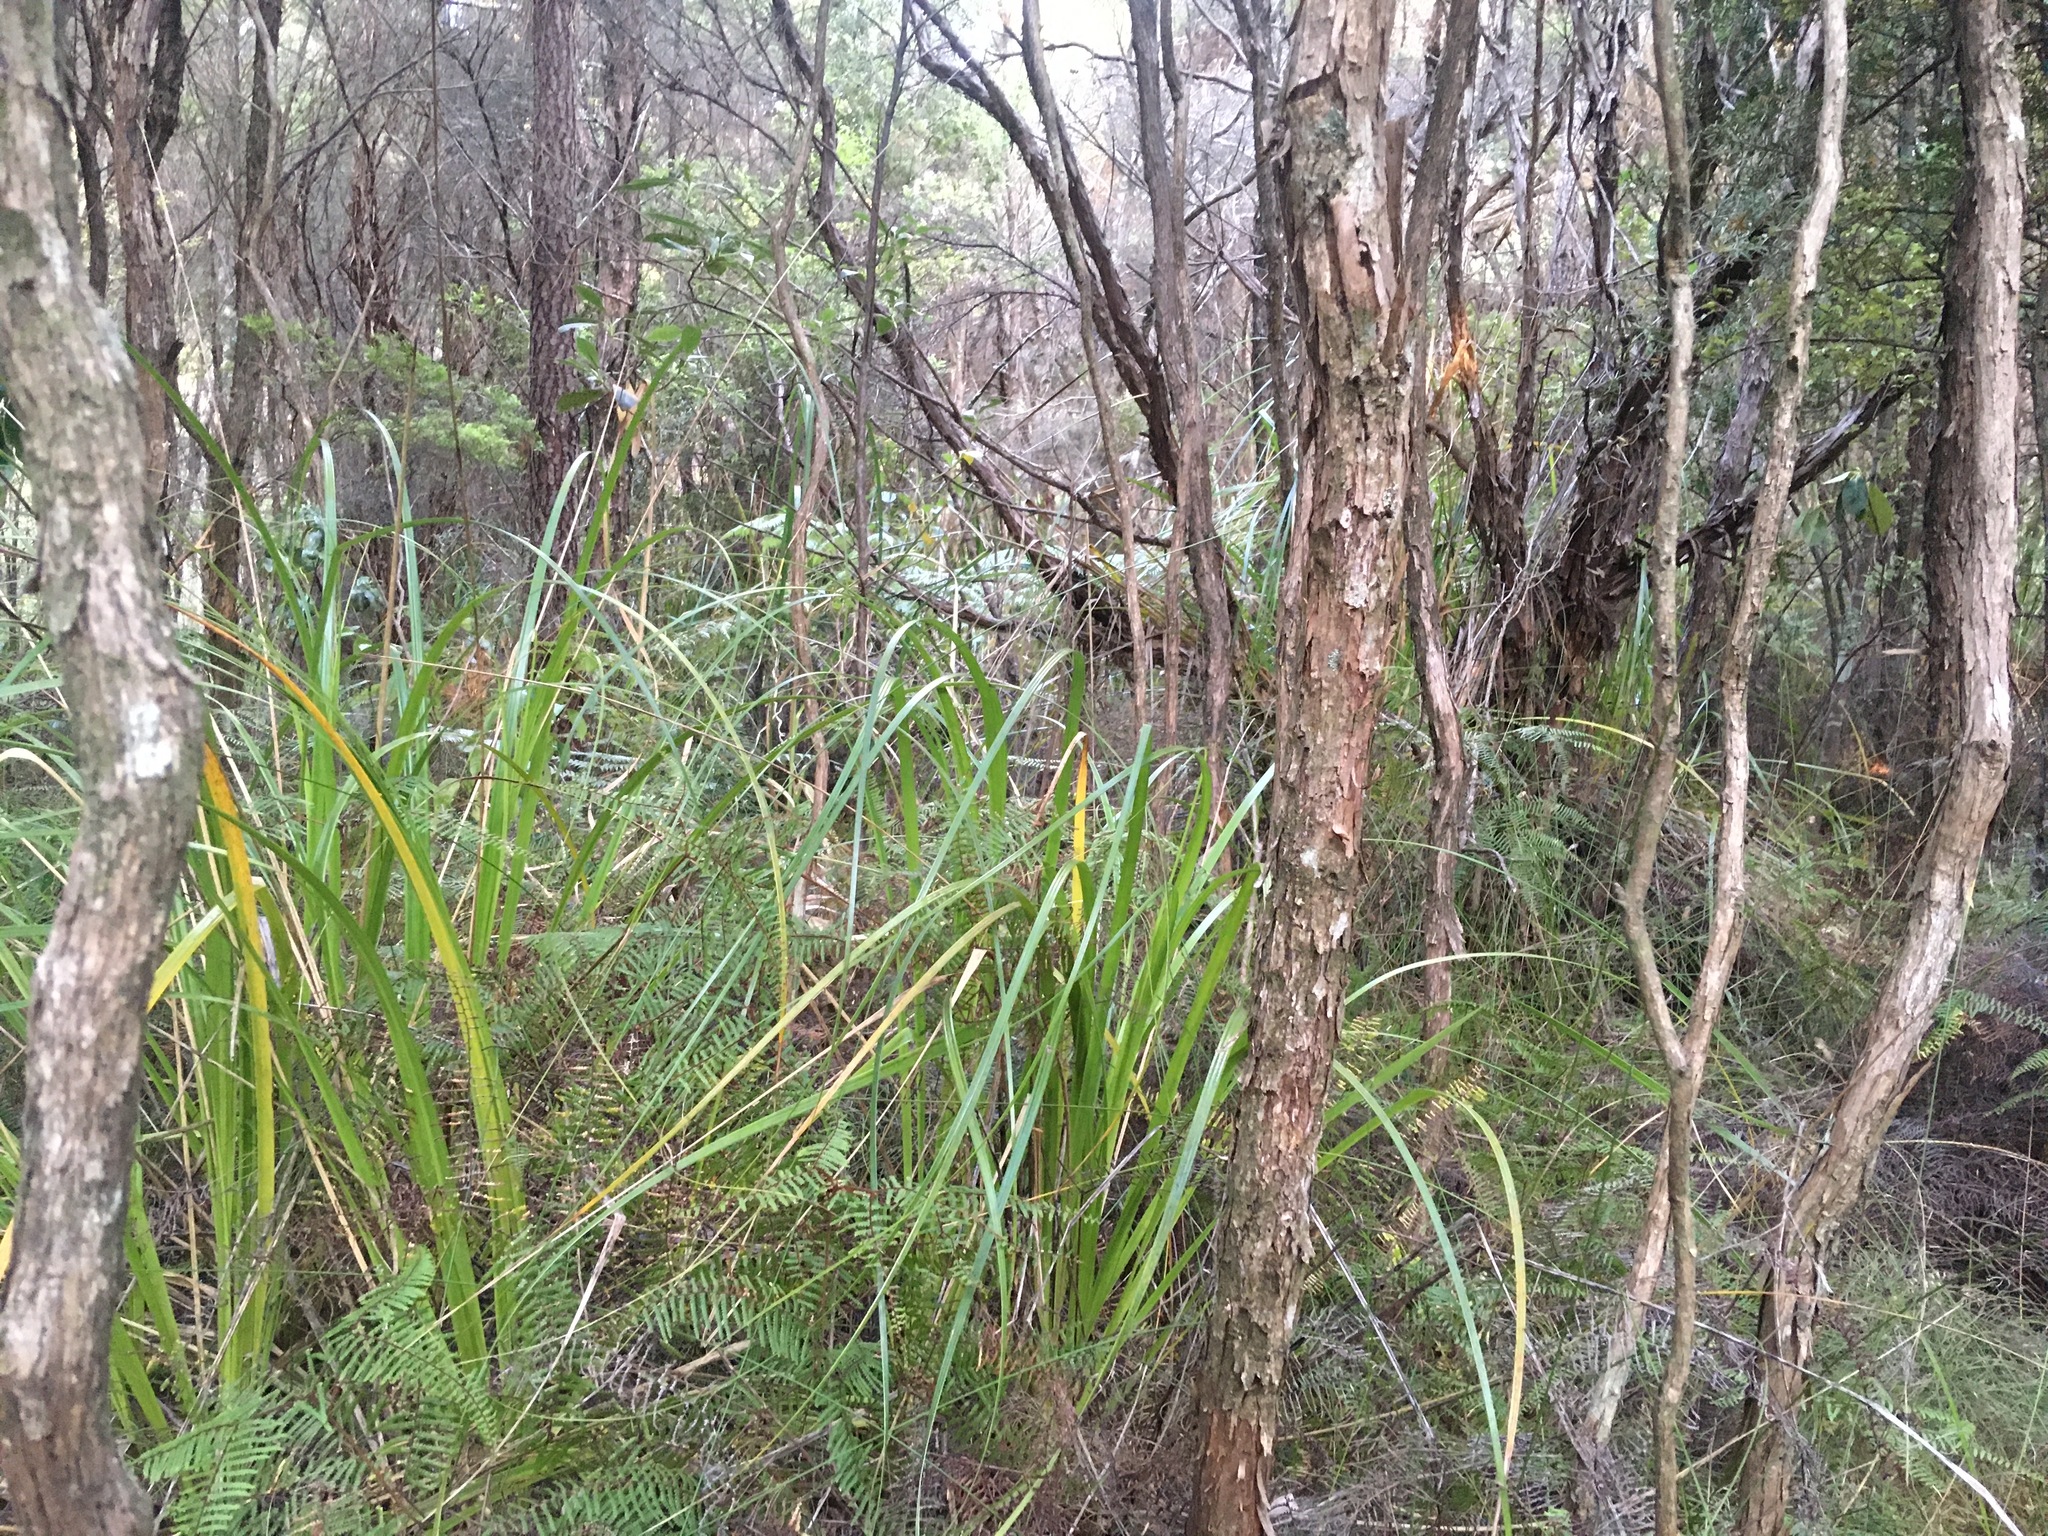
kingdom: Plantae
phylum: Tracheophyta
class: Liliopsida
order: Poales
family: Cyperaceae
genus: Gahnia
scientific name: Gahnia xanthocarpa
